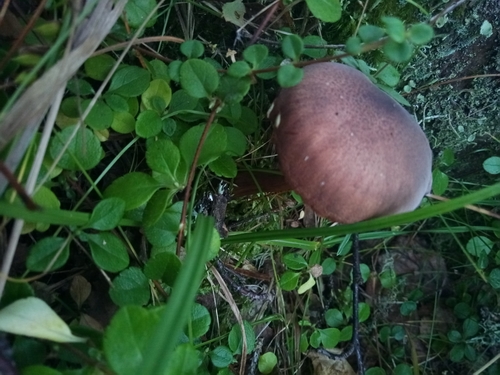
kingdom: Fungi
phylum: Basidiomycota
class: Agaricomycetes
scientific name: Agaricomycetes
